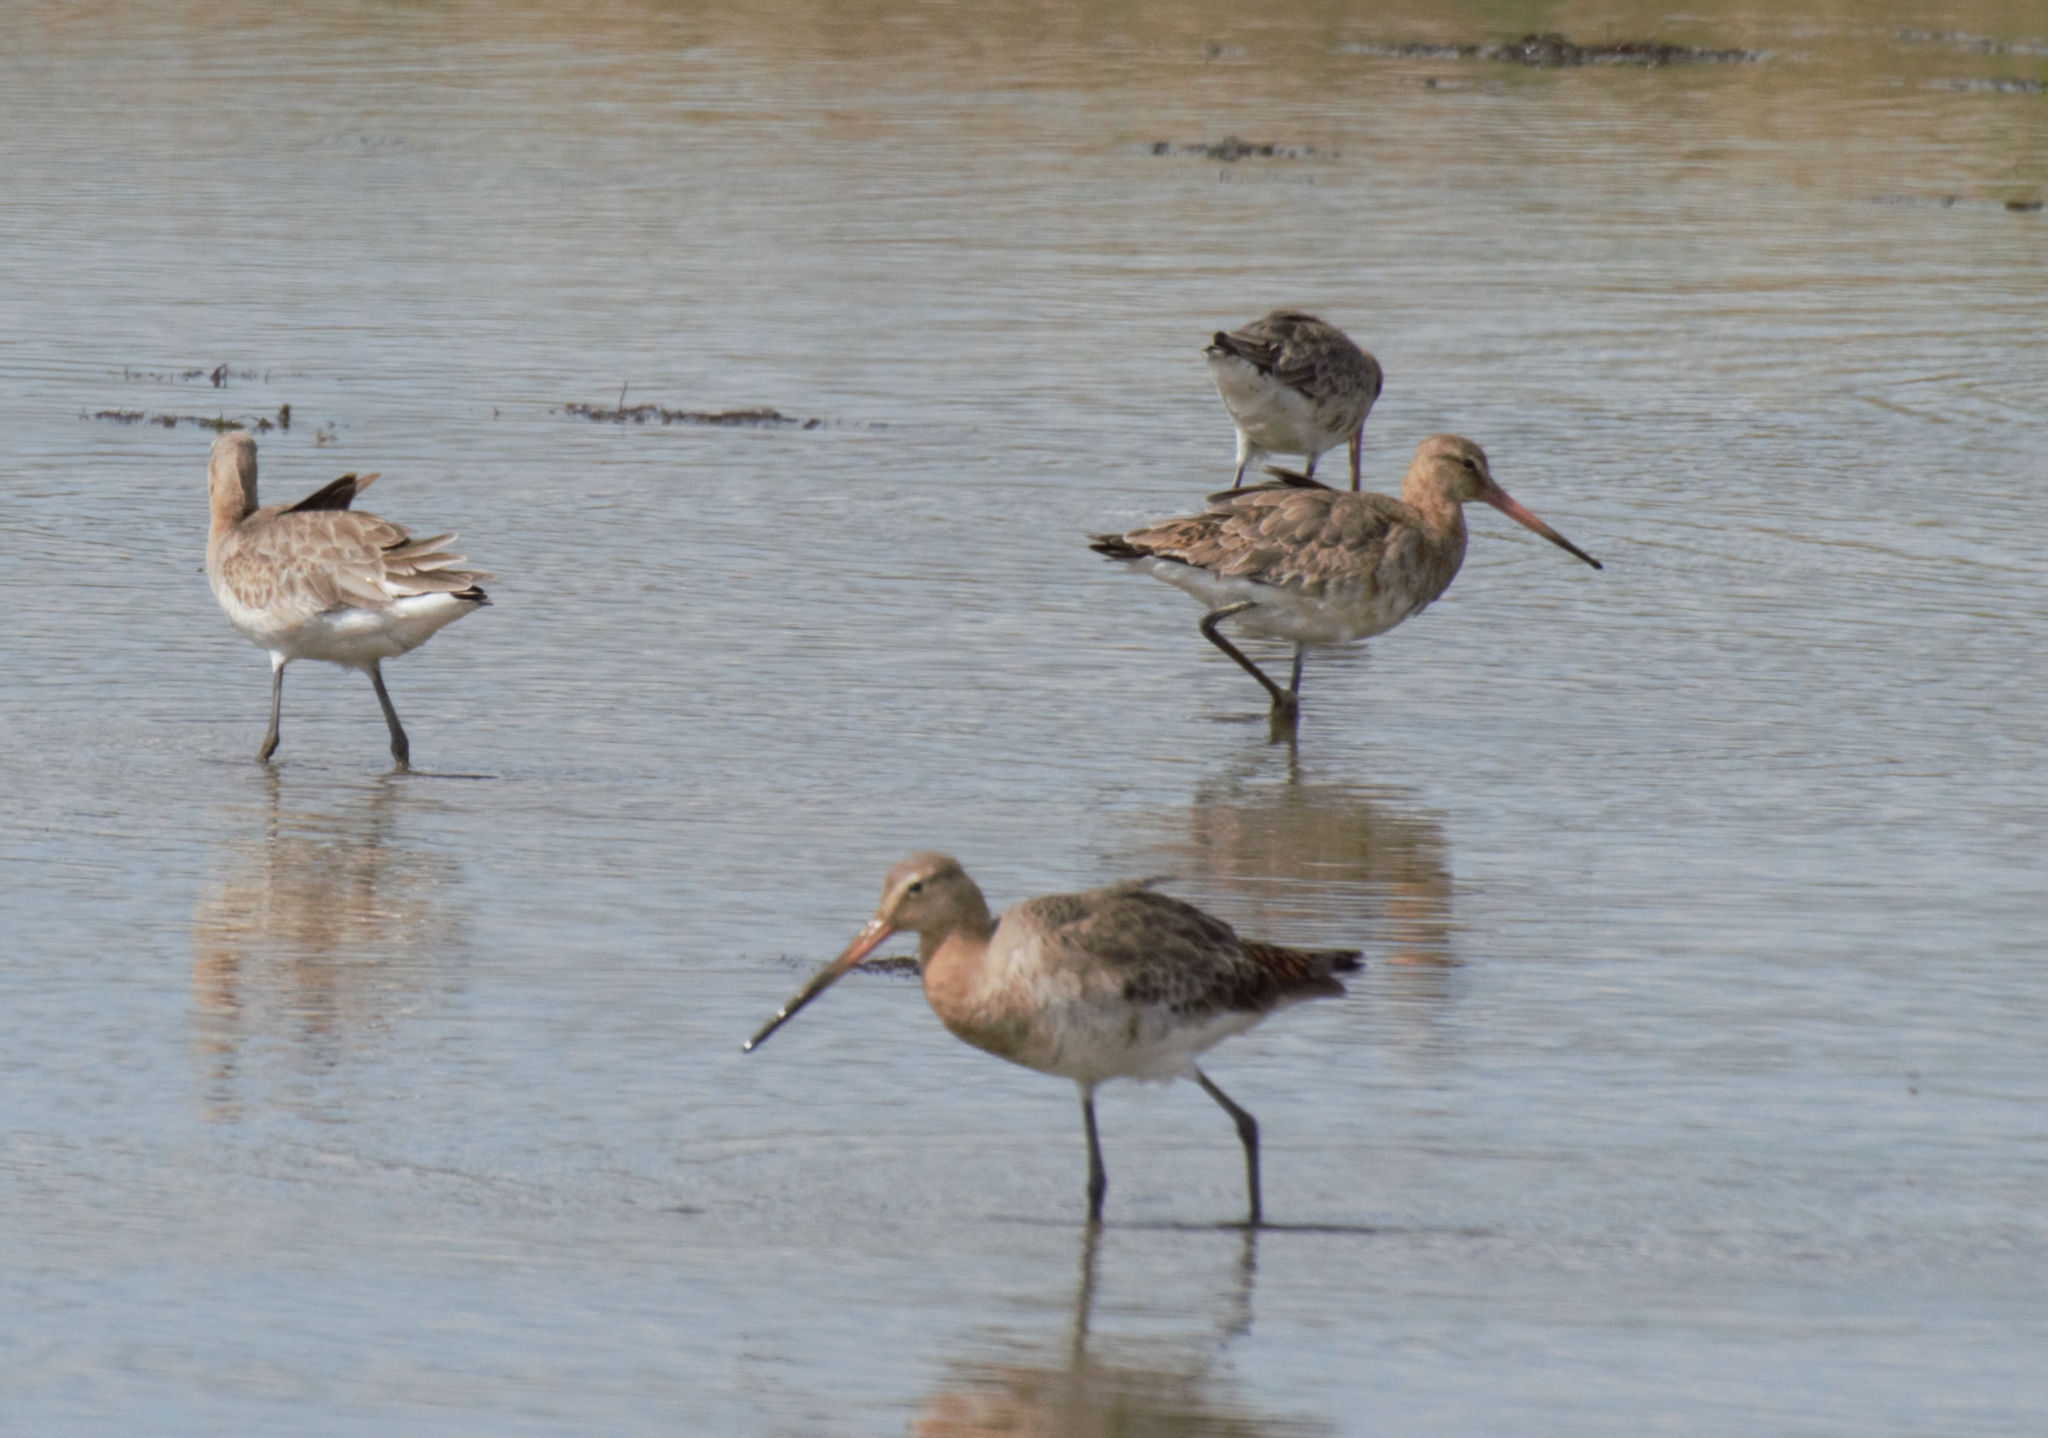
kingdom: Animalia
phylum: Chordata
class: Aves
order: Charadriiformes
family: Scolopacidae
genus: Limosa
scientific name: Limosa limosa
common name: Black-tailed godwit
